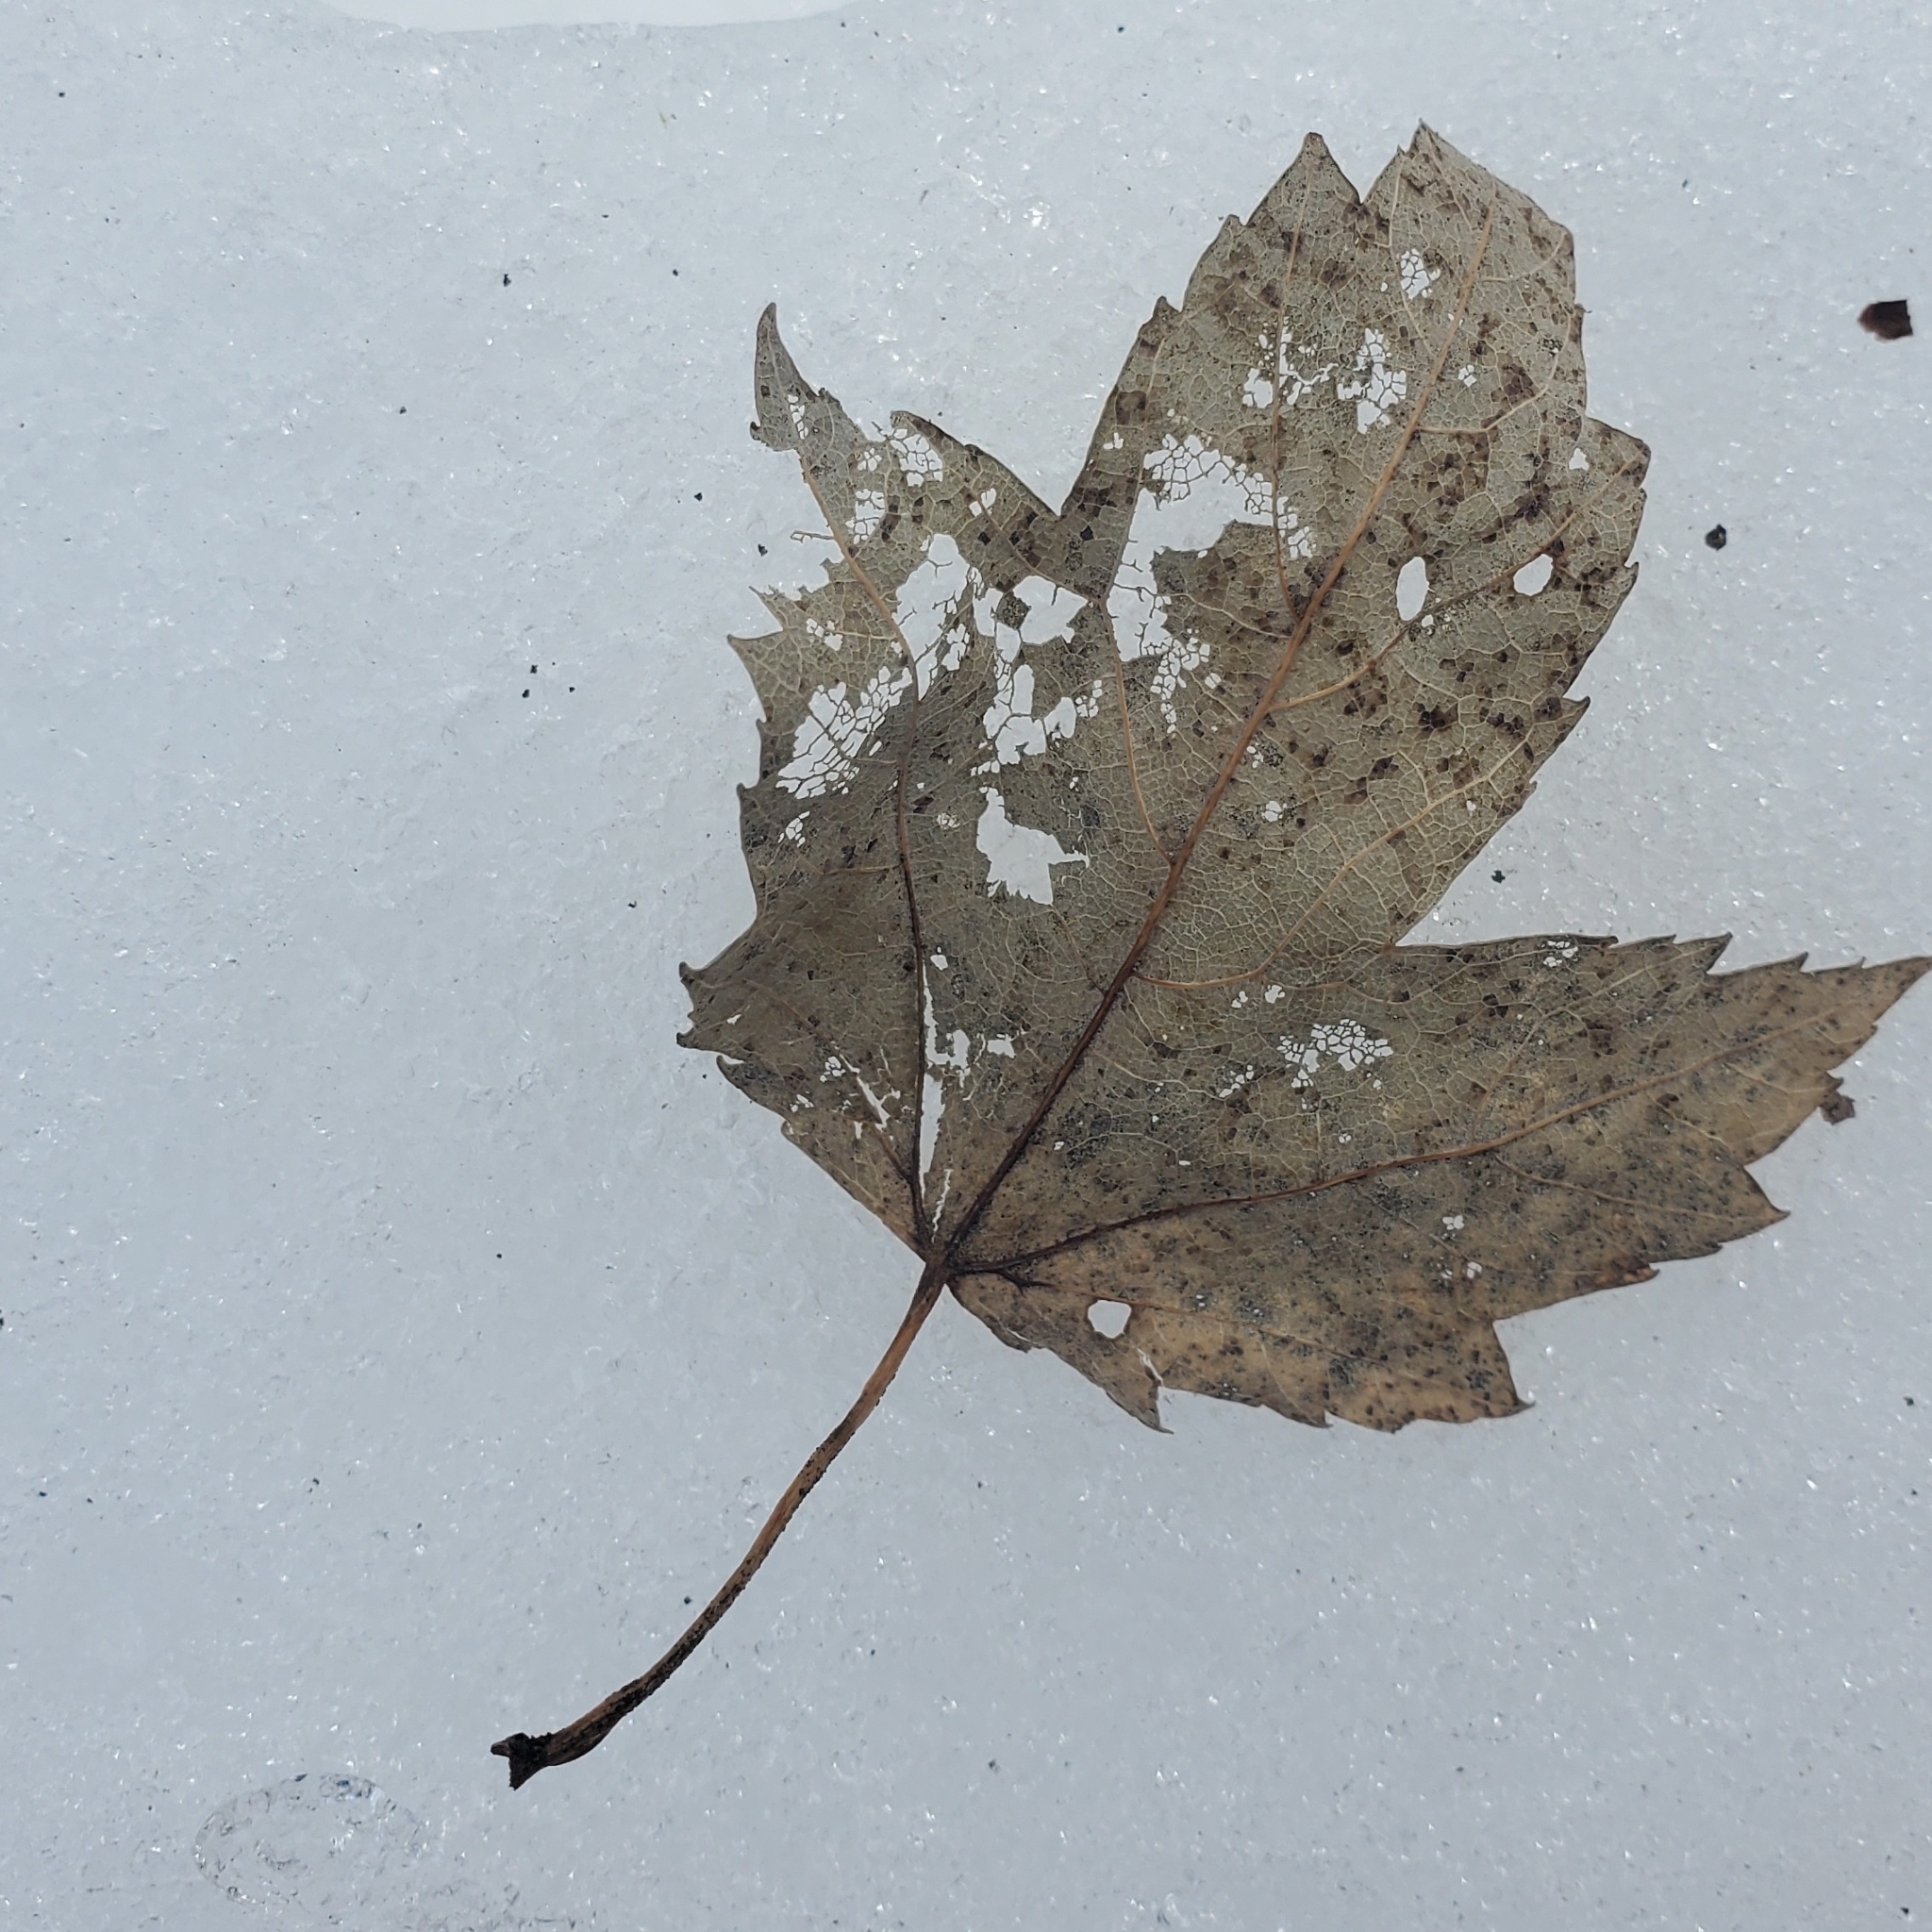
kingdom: Plantae
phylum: Tracheophyta
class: Magnoliopsida
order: Sapindales
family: Sapindaceae
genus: Acer
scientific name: Acer rubrum
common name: Red maple
